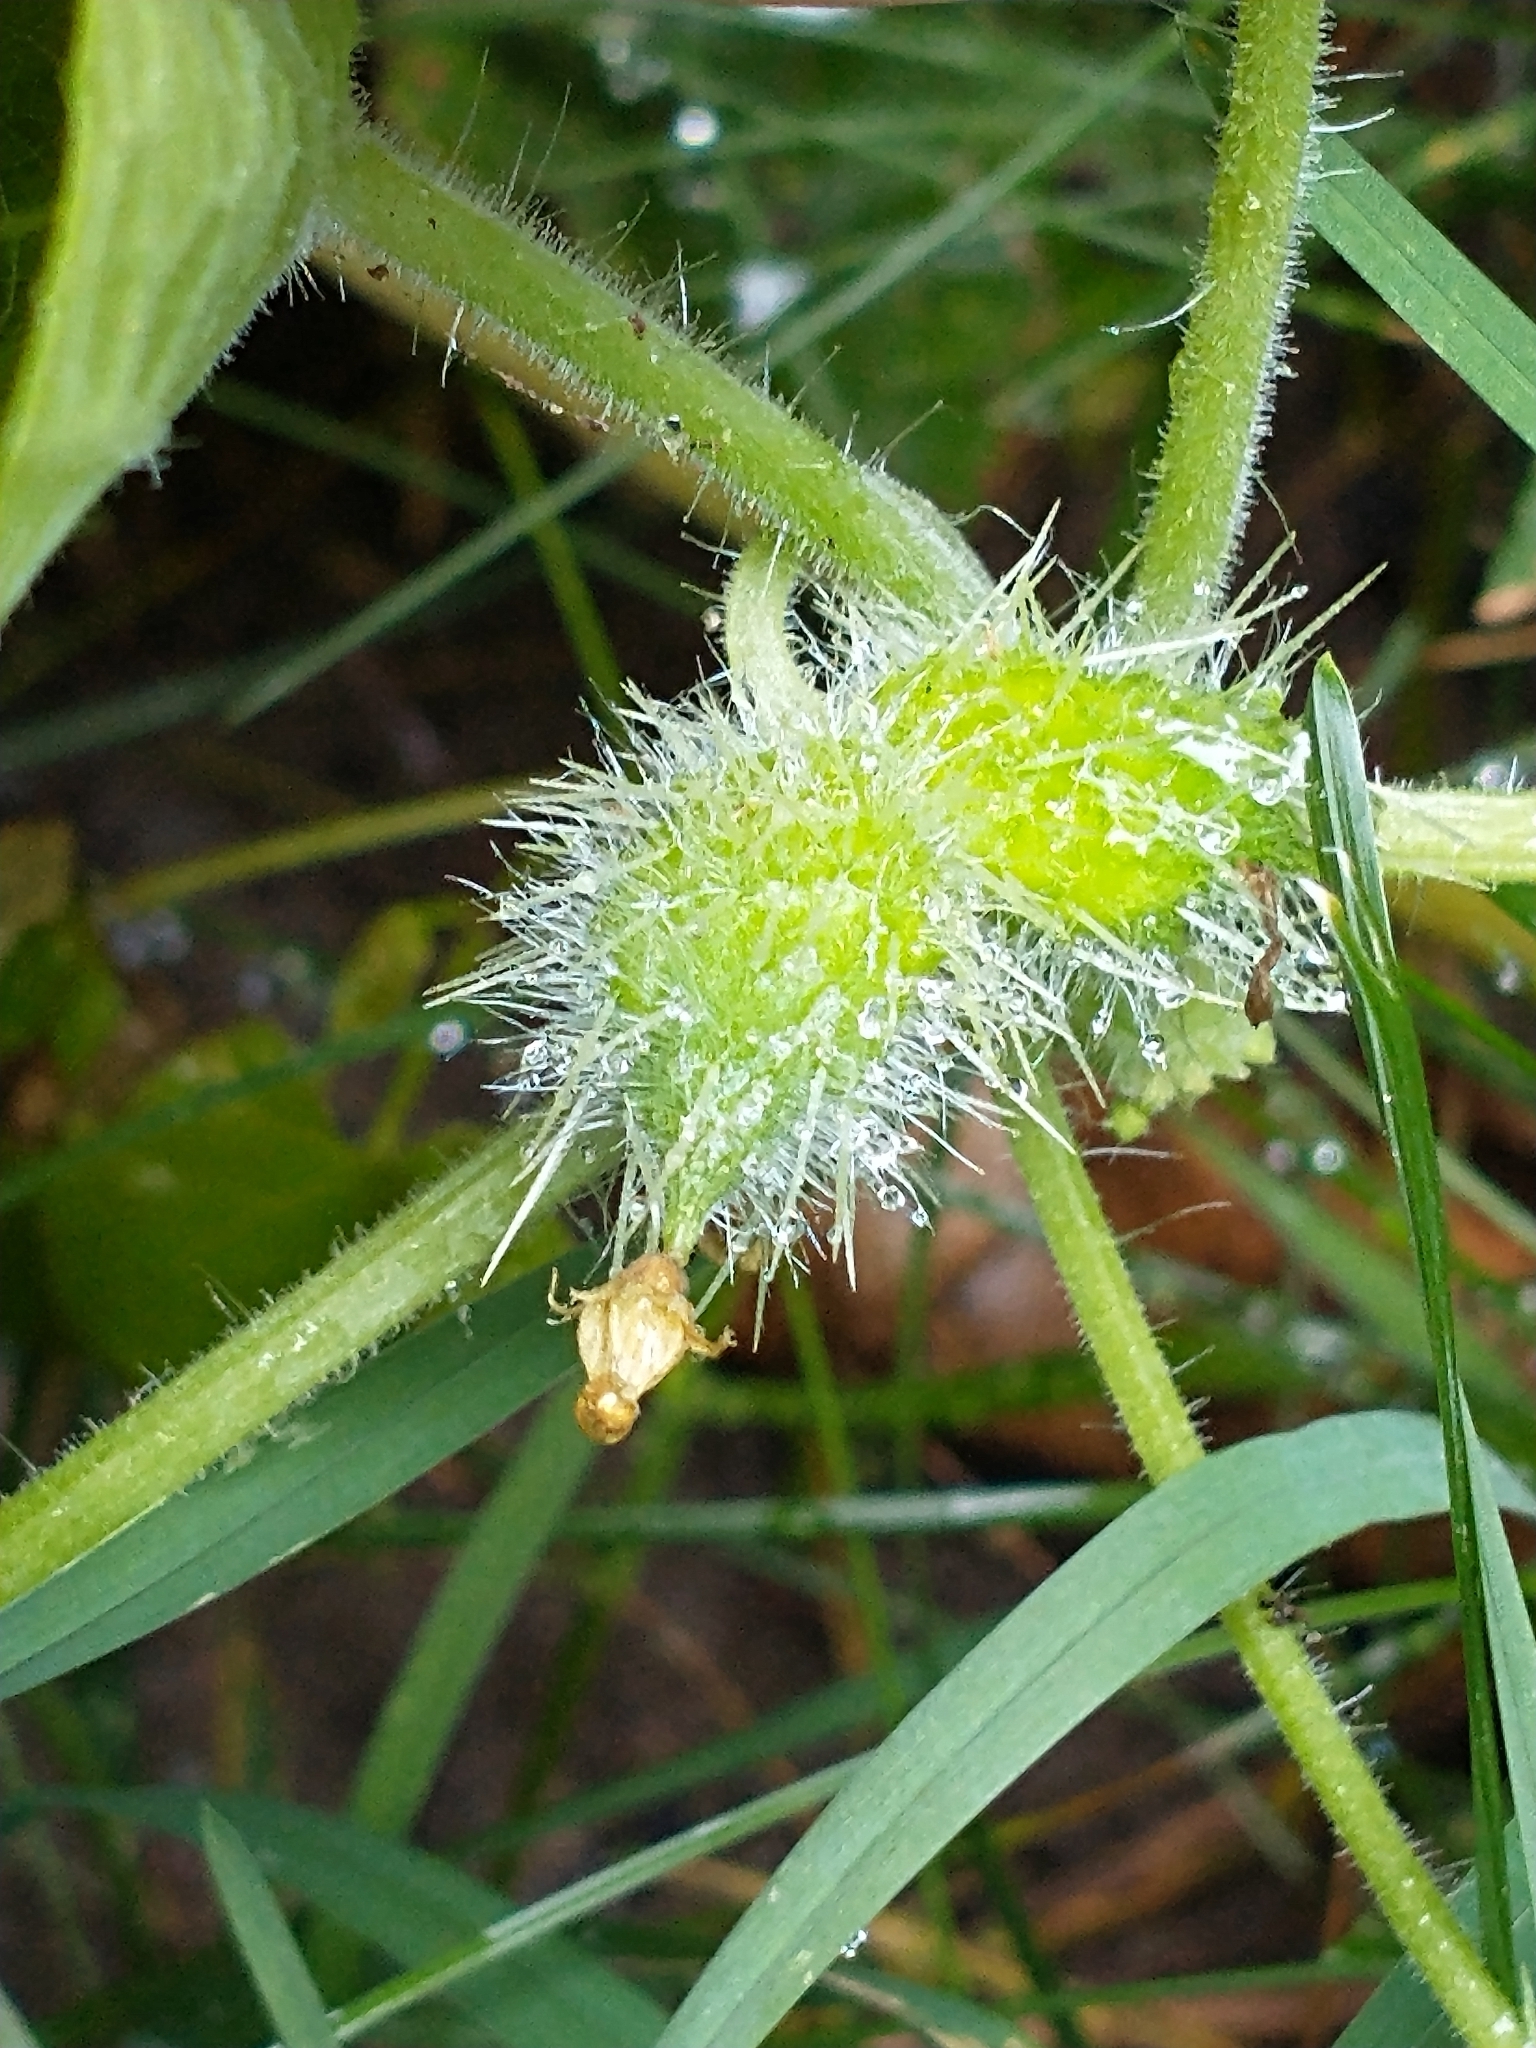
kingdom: Plantae
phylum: Tracheophyta
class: Magnoliopsida
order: Cucurbitales
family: Cucurbitaceae
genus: Sicyos
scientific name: Sicyos angulatus
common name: Angled burr cucumber
